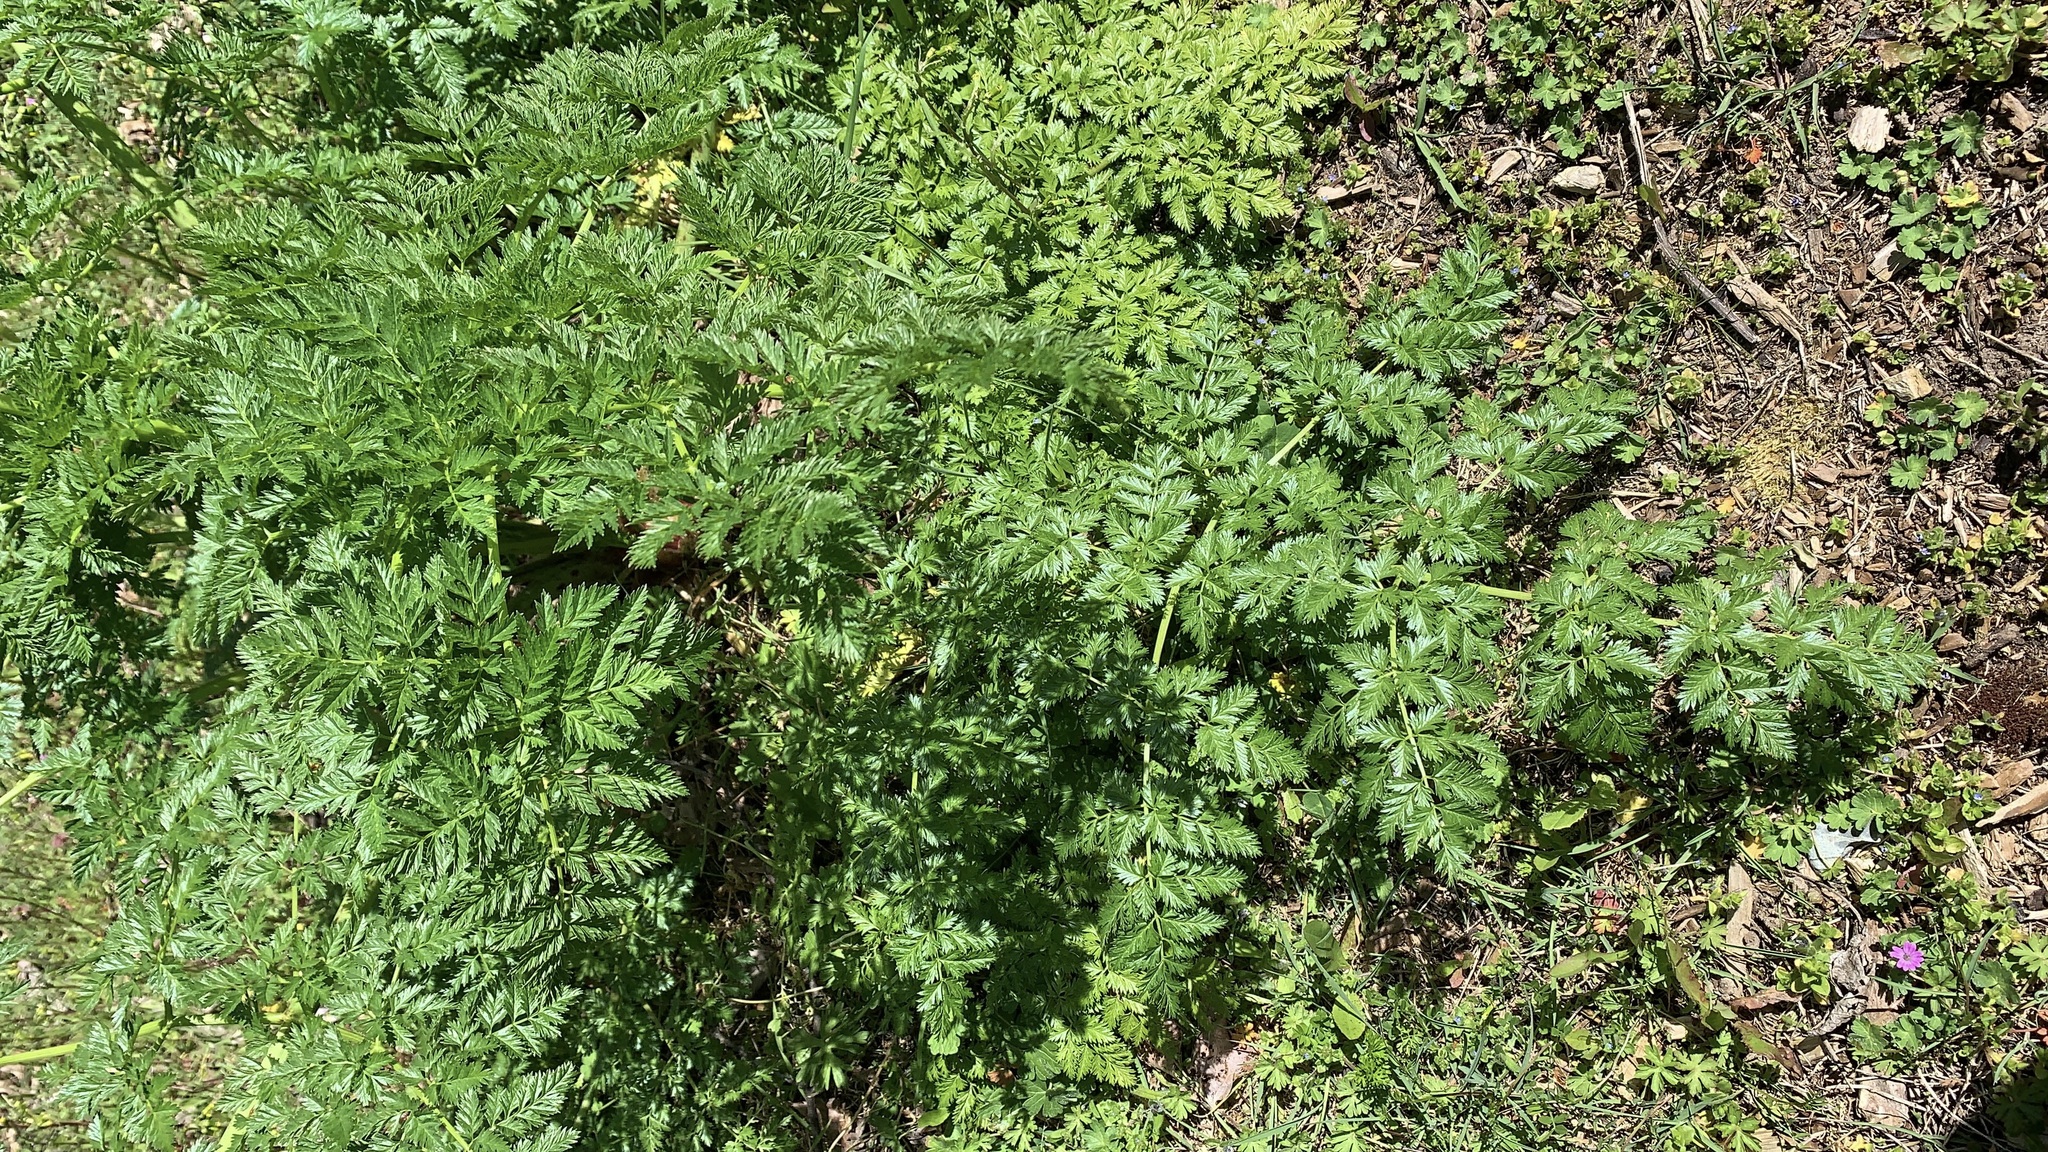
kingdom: Plantae
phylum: Tracheophyta
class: Magnoliopsida
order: Apiales
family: Apiaceae
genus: Conium
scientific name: Conium maculatum
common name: Hemlock
